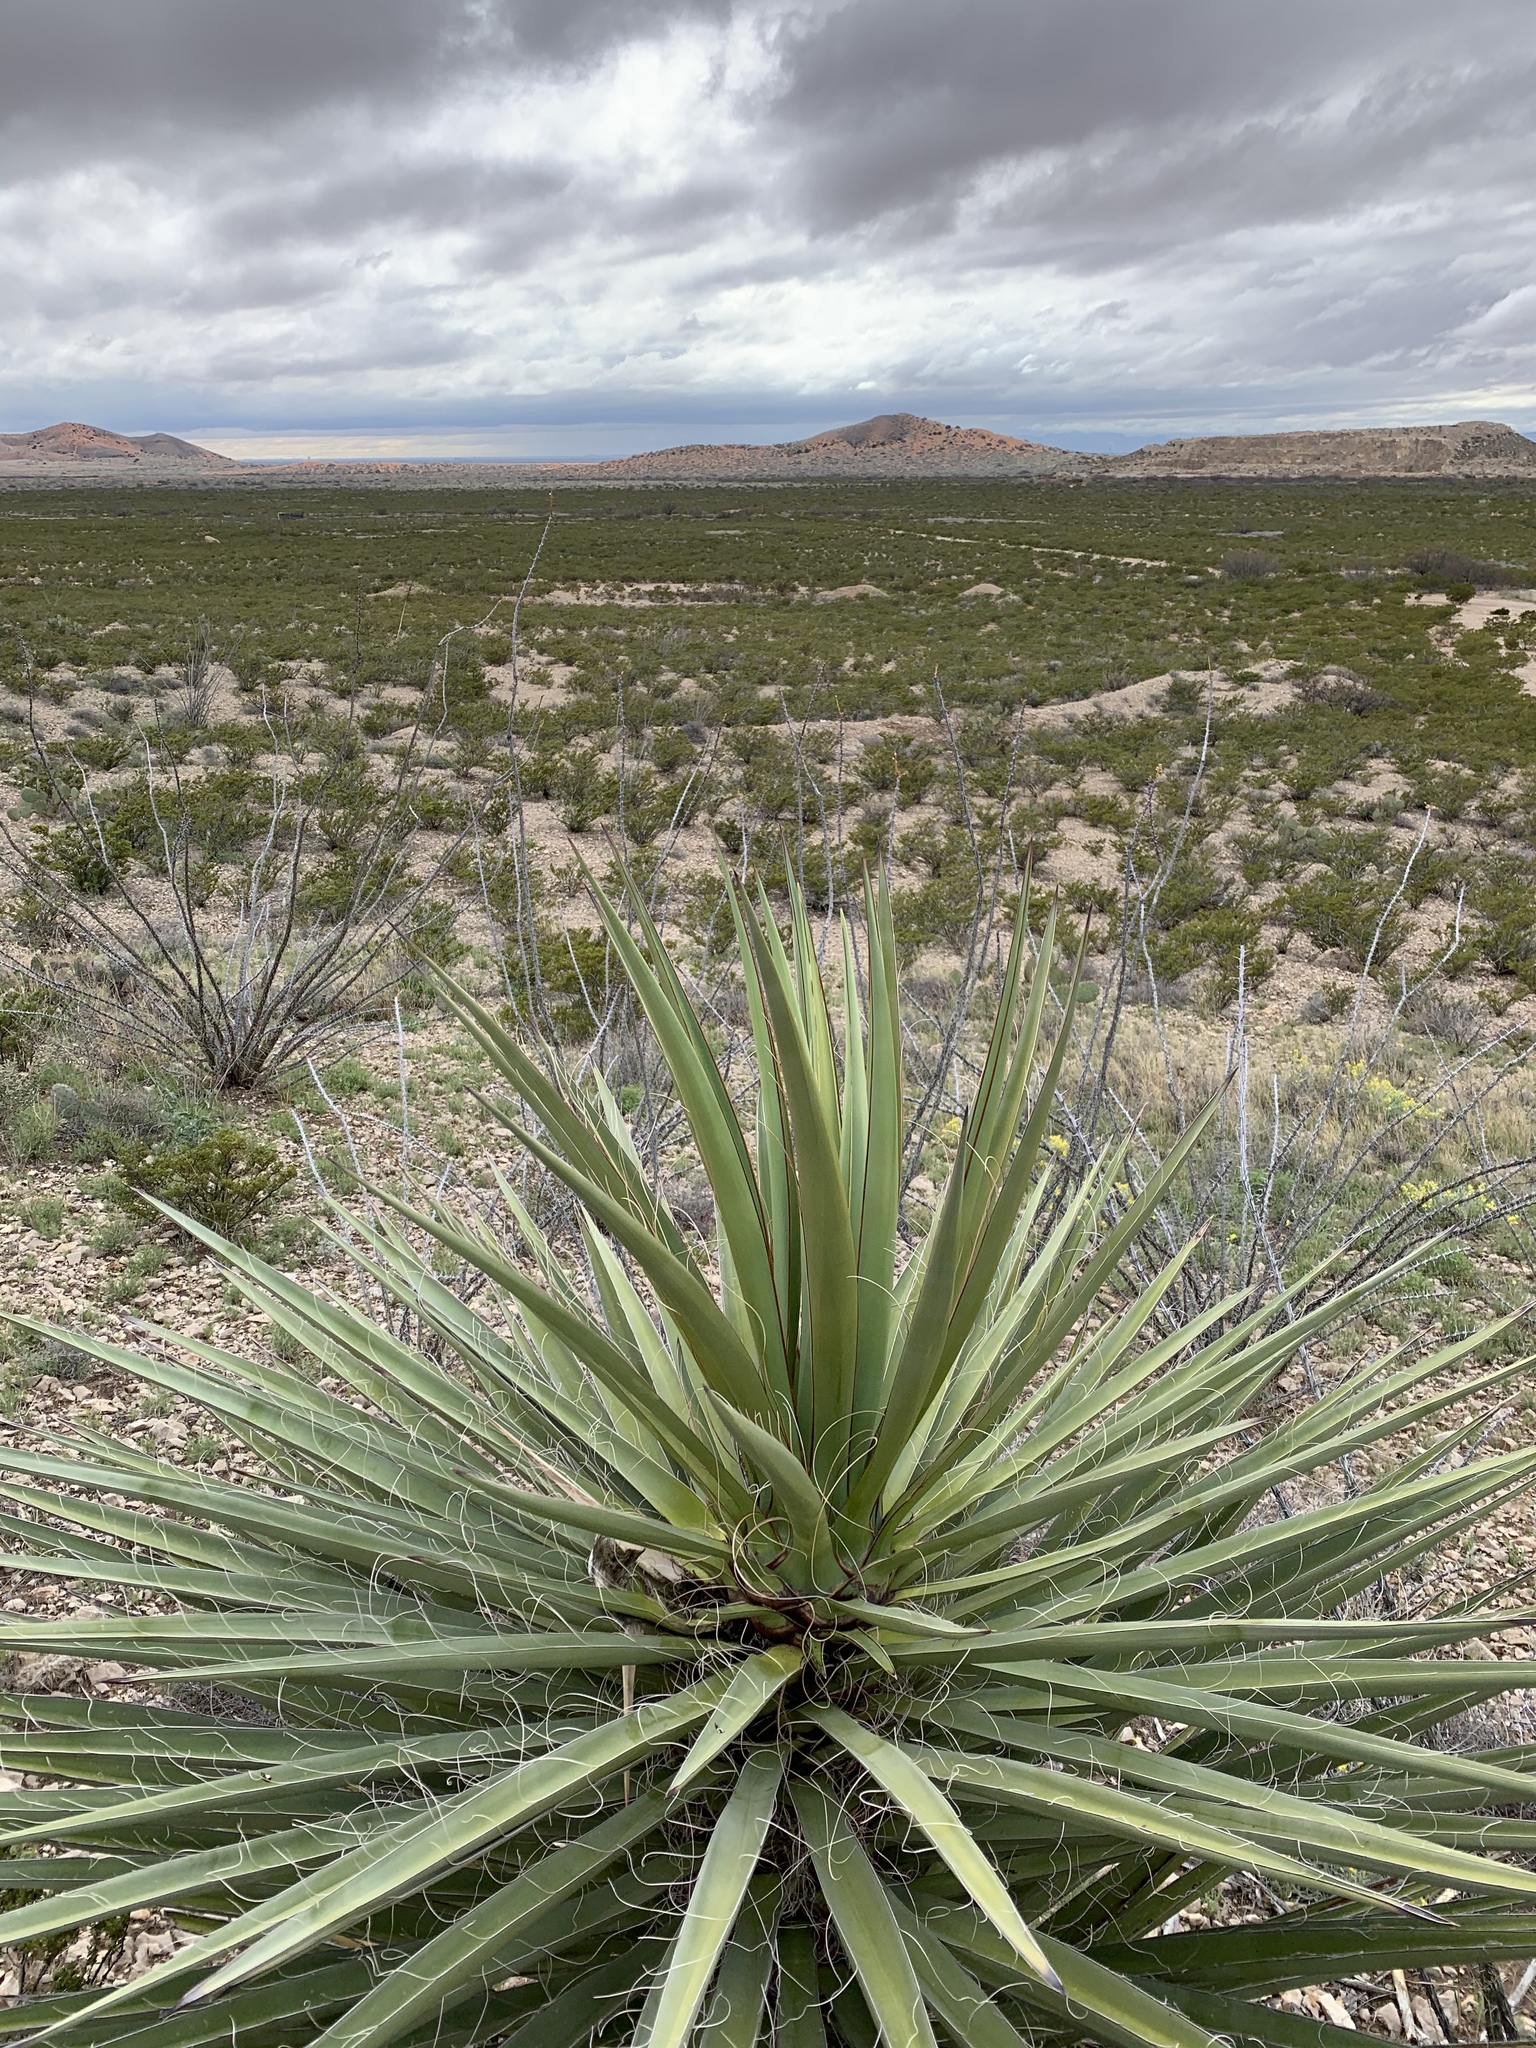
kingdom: Plantae
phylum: Tracheophyta
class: Liliopsida
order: Asparagales
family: Asparagaceae
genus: Yucca
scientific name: Yucca treculiana
